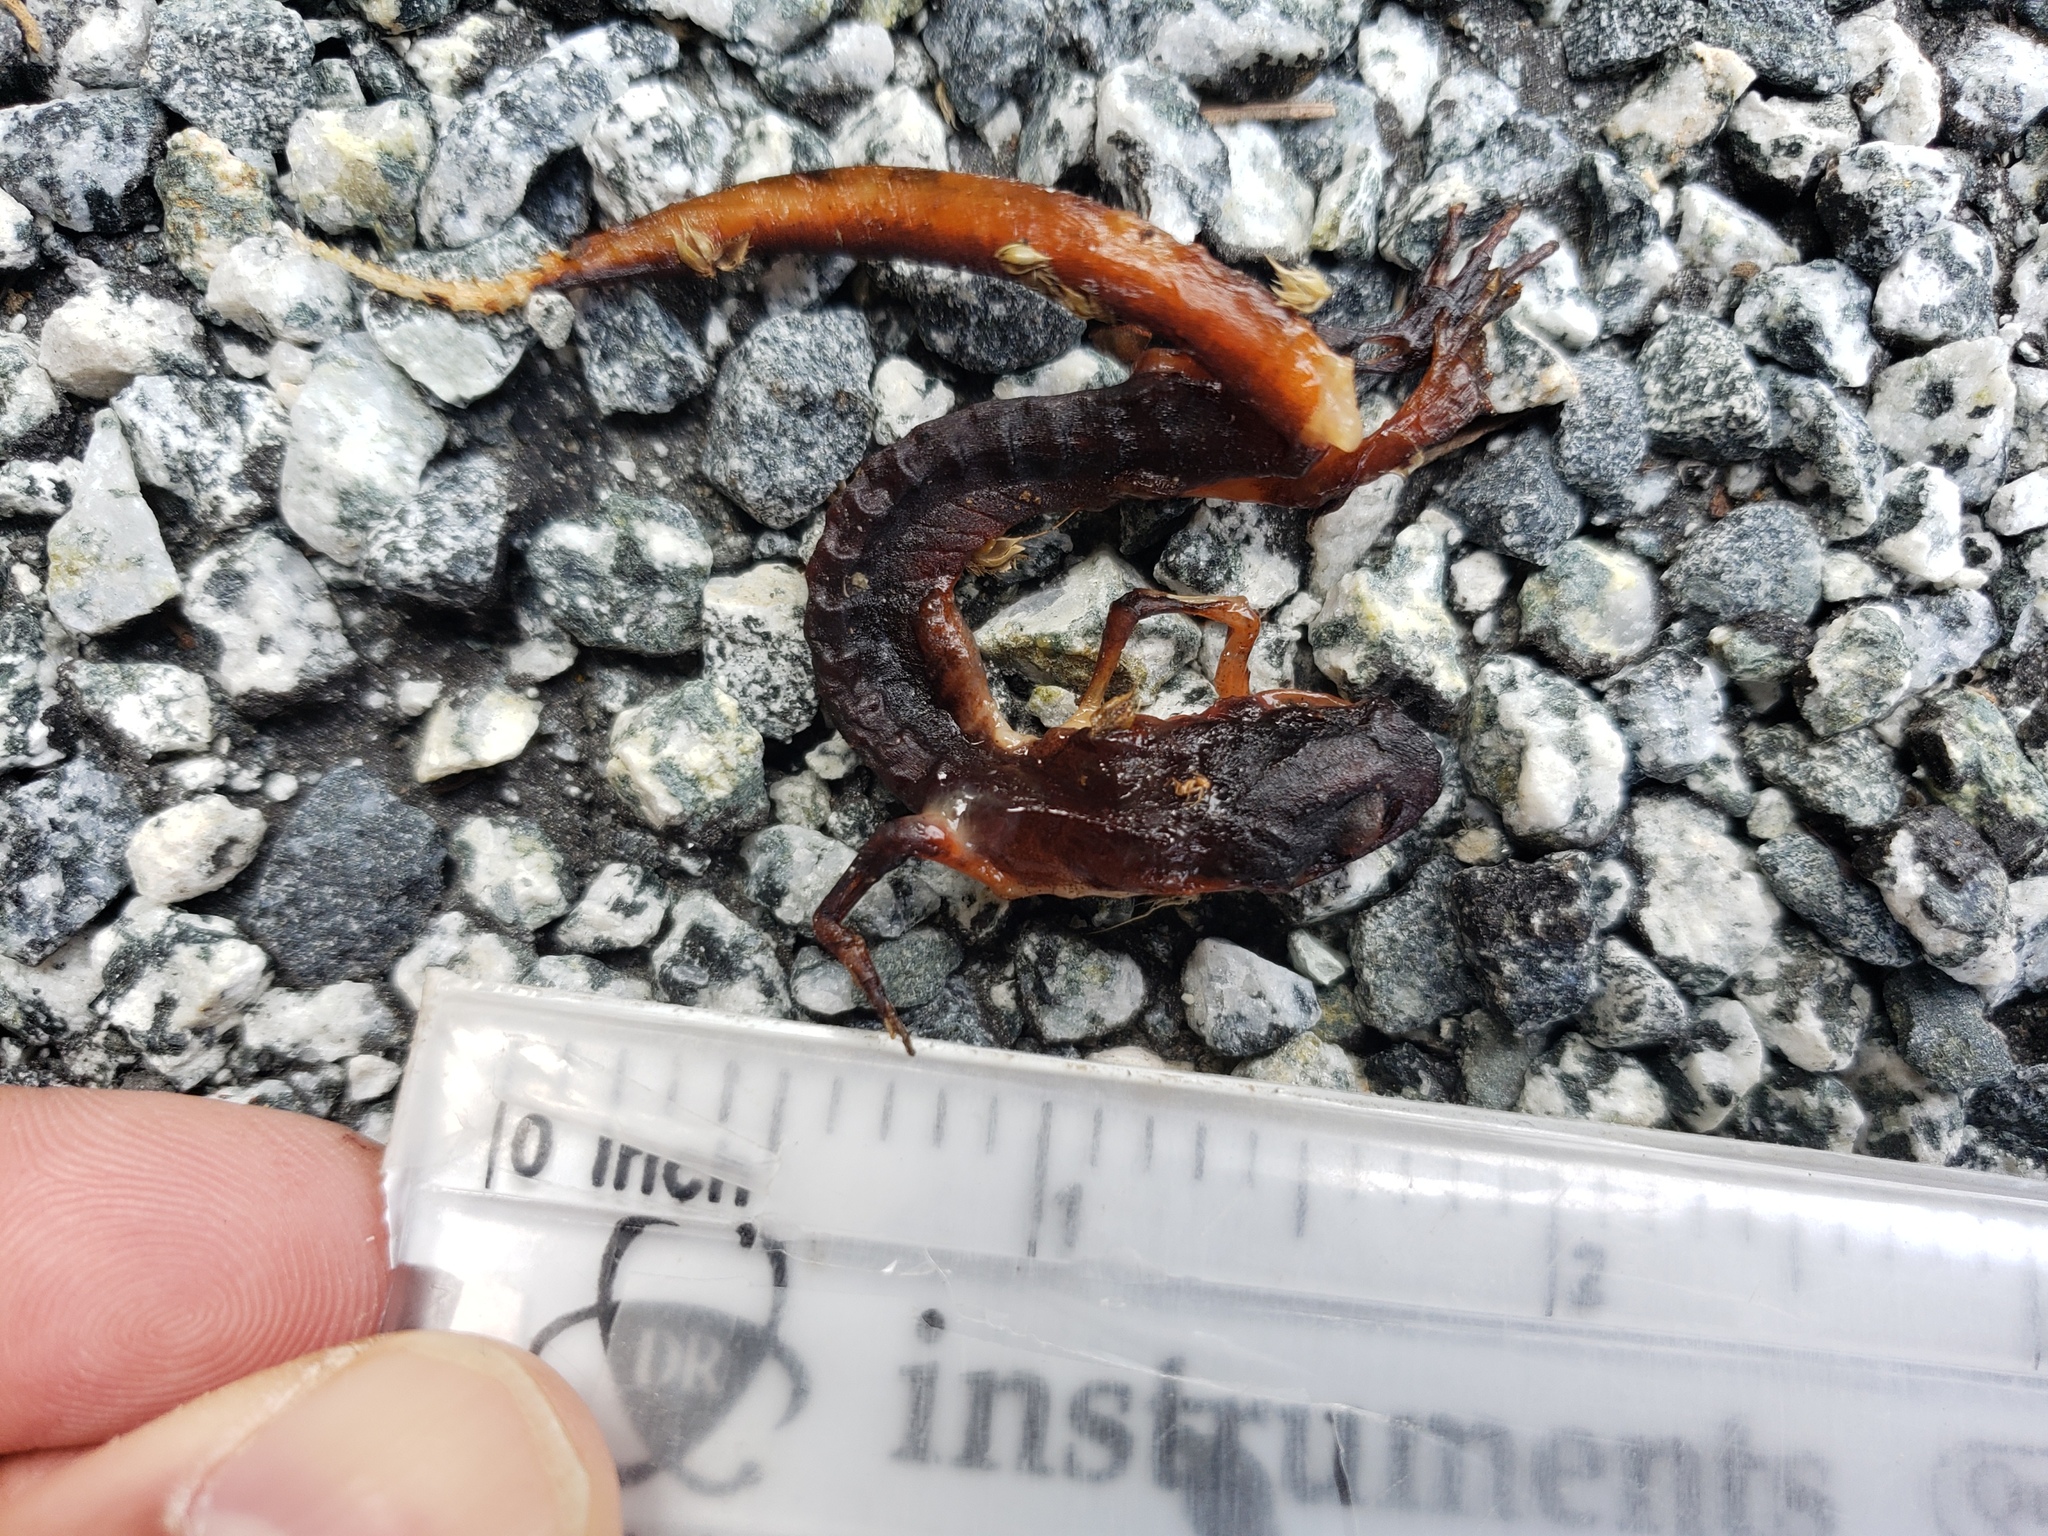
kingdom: Animalia
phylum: Chordata
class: Amphibia
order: Caudata
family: Salamandridae
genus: Taricha
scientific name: Taricha
